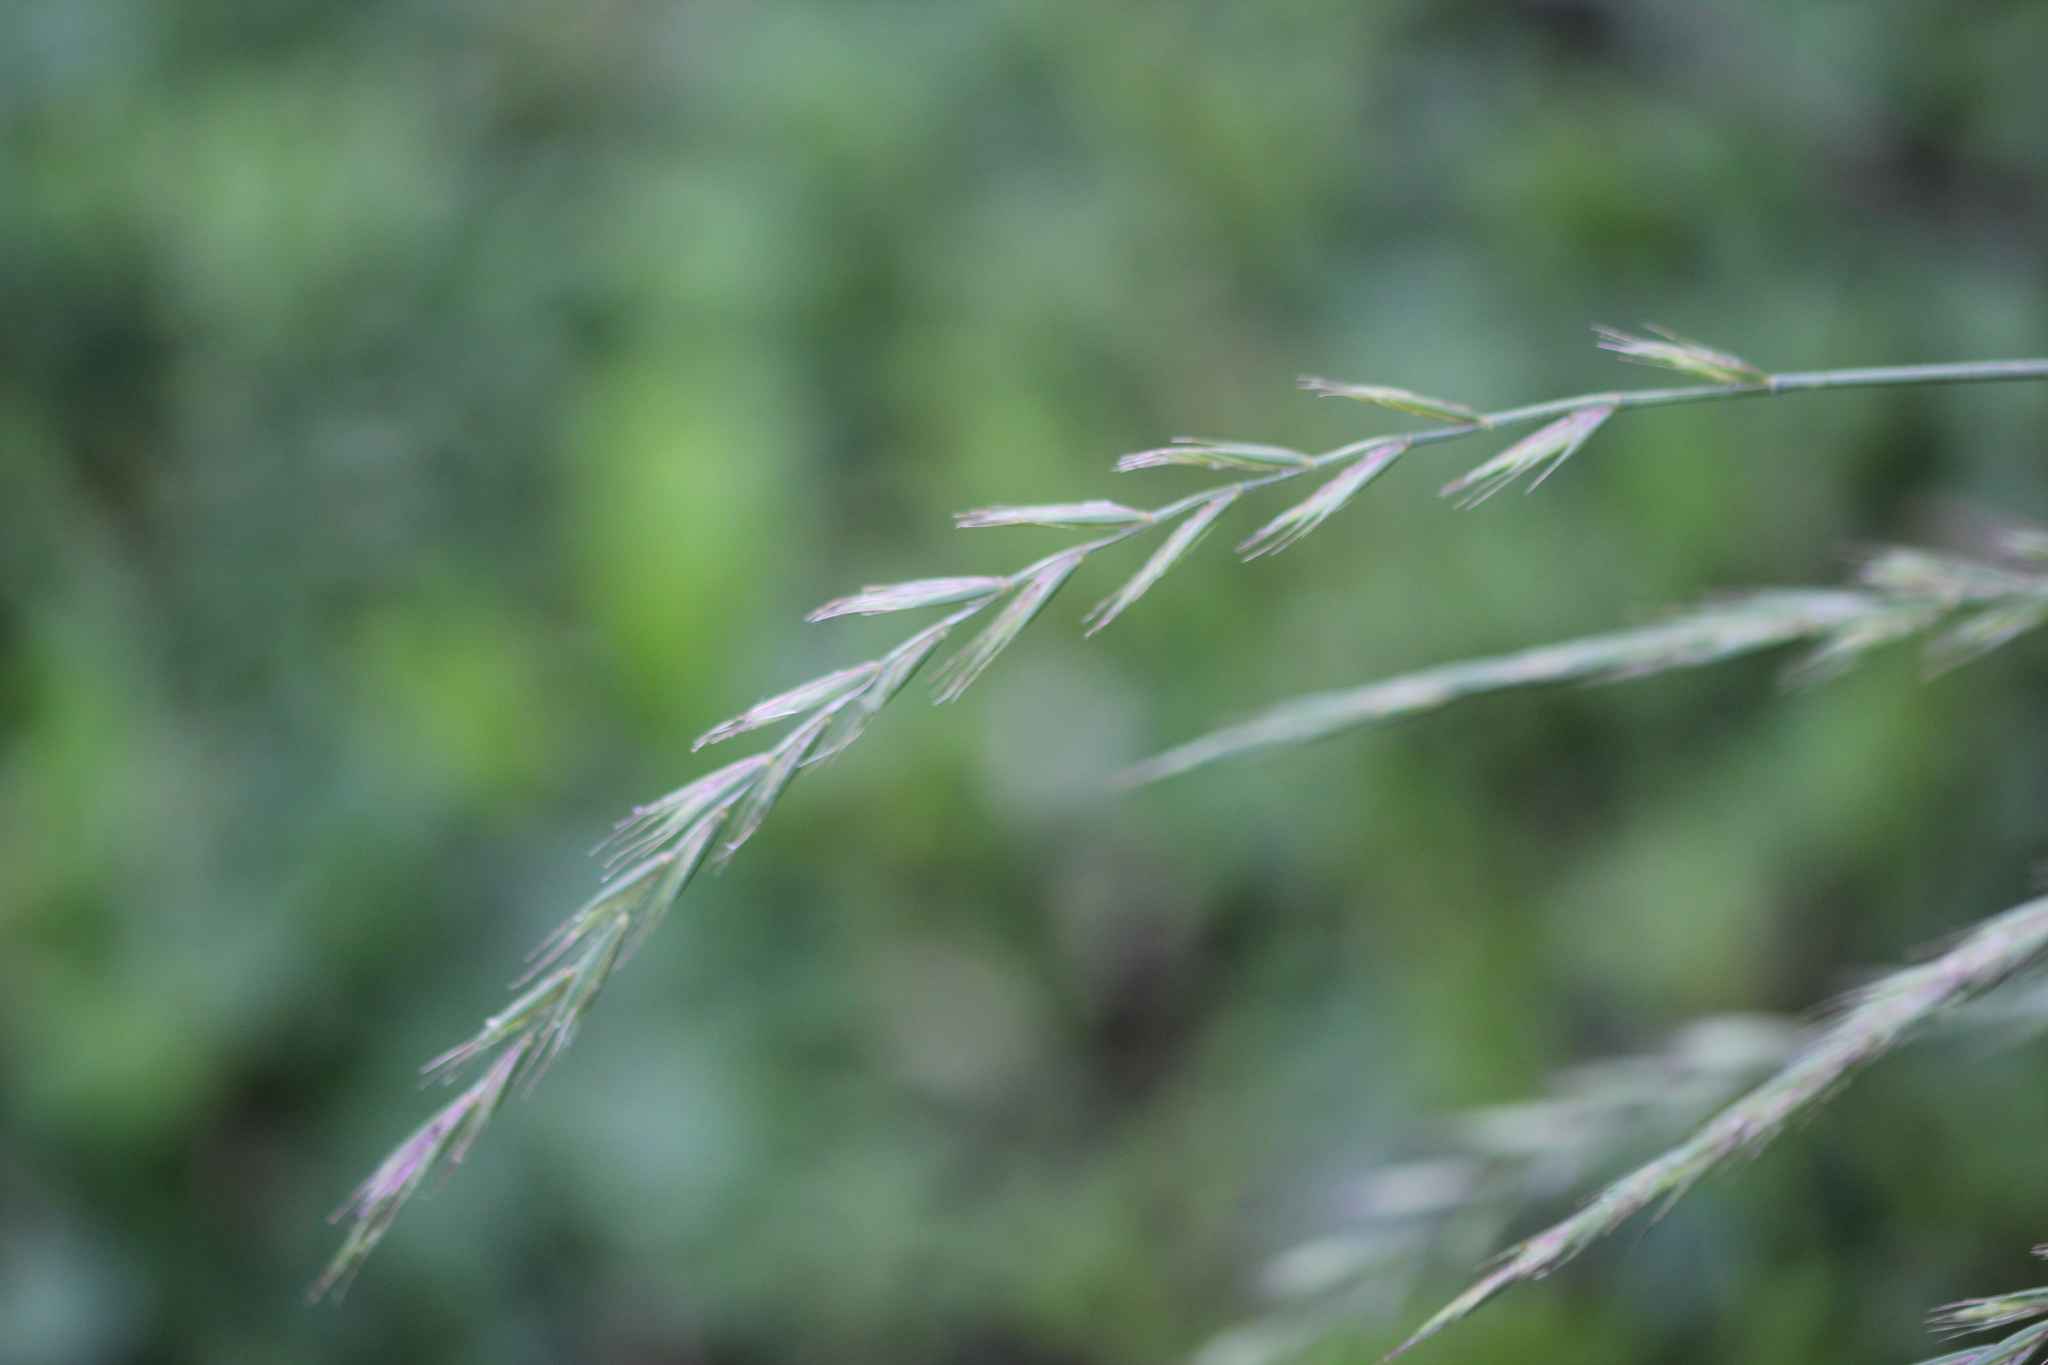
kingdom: Plantae
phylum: Tracheophyta
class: Liliopsida
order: Poales
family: Poaceae
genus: Elymus
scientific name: Elymus repens
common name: Quackgrass
